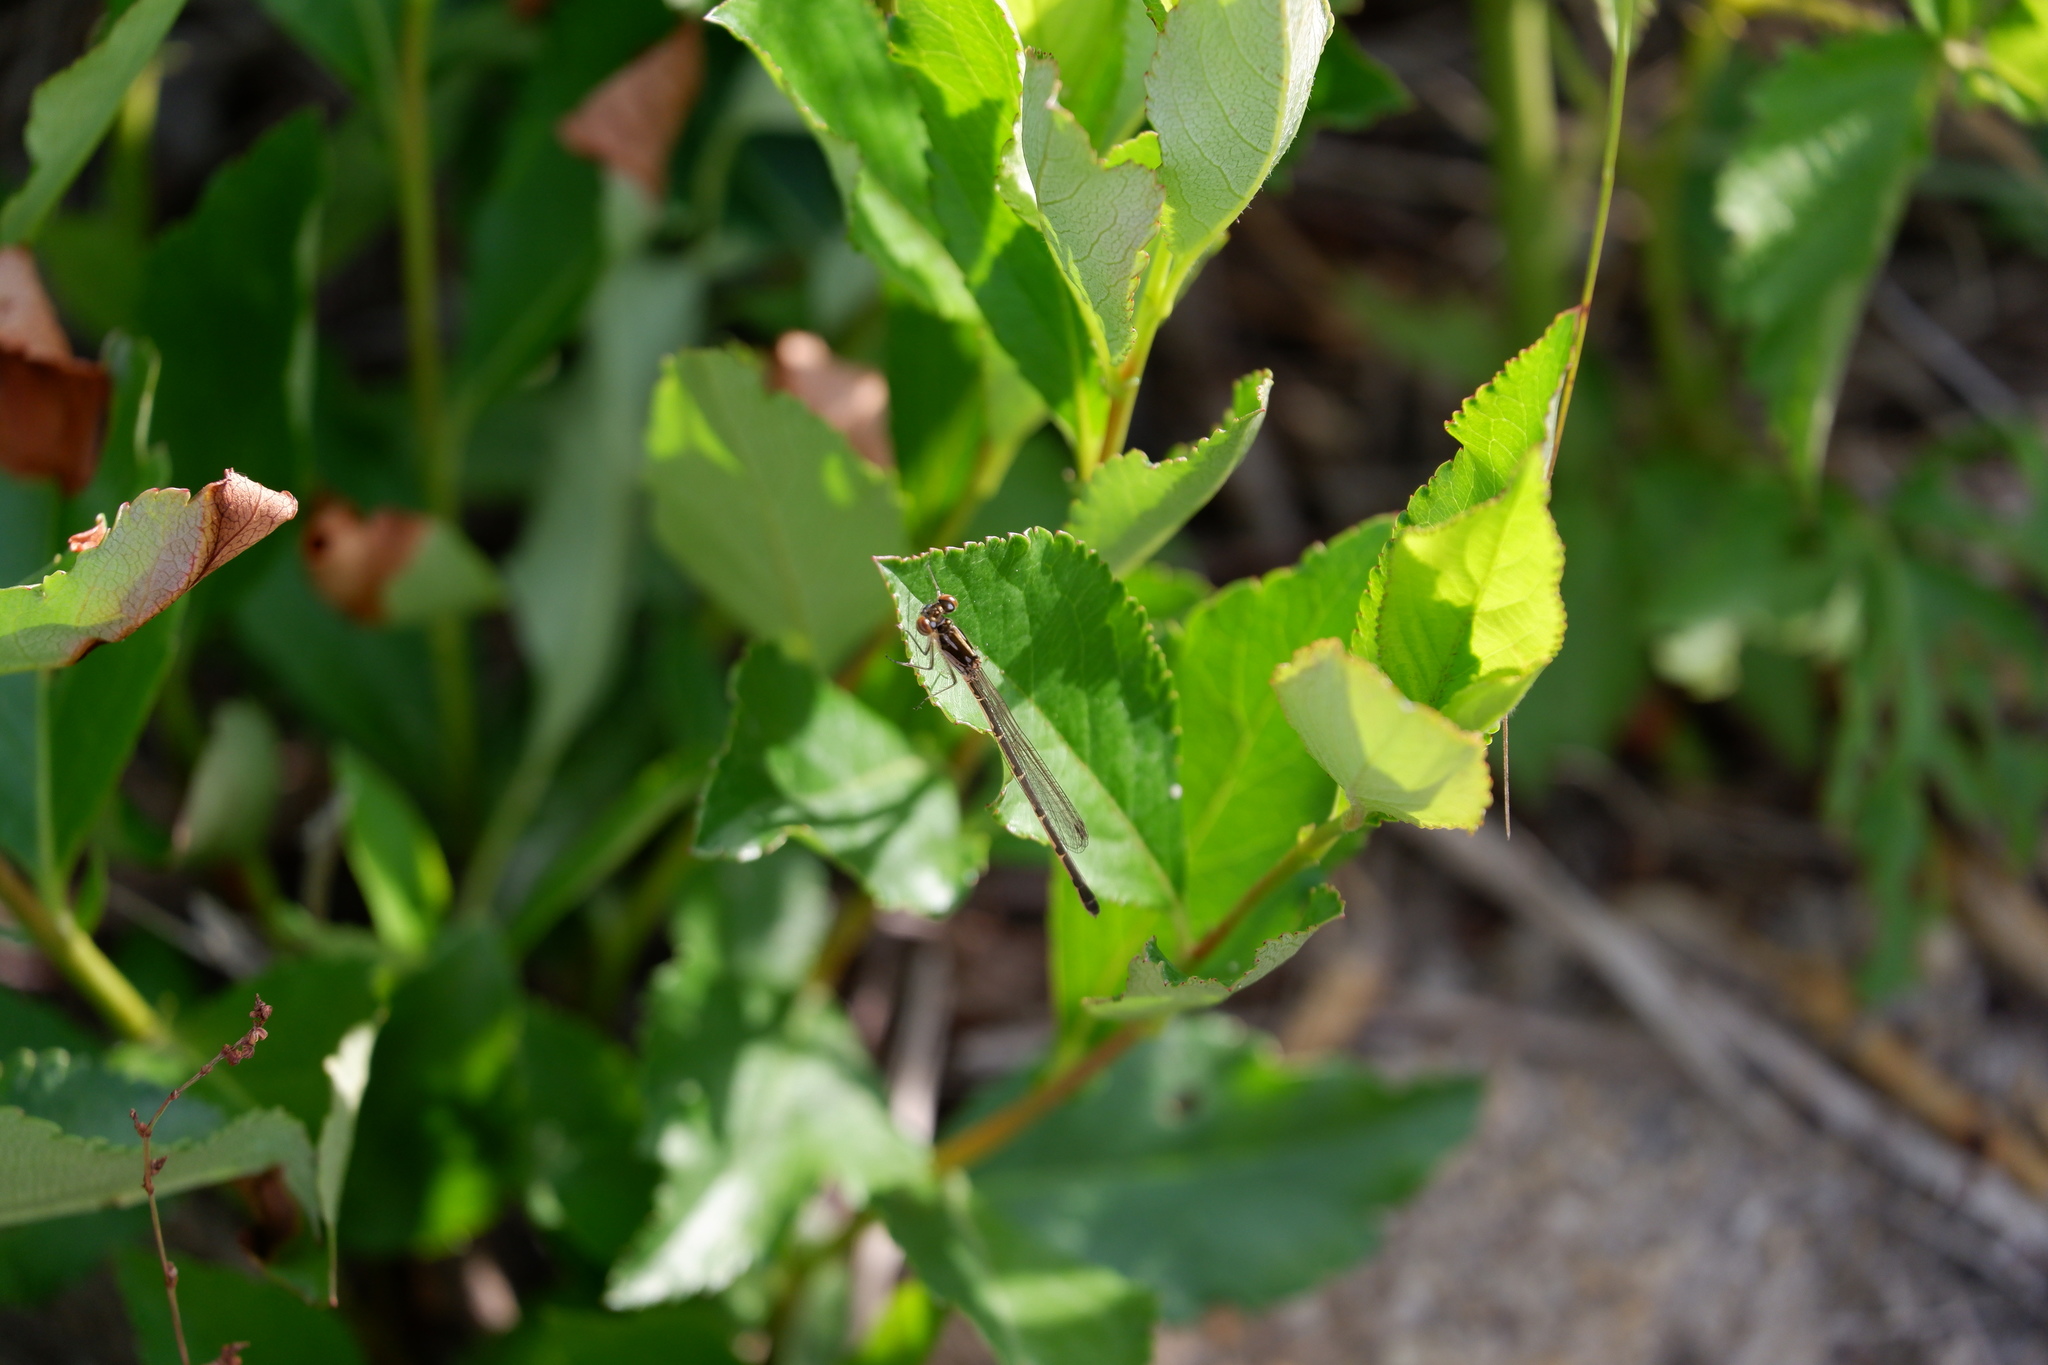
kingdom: Animalia
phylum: Arthropoda
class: Insecta
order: Odonata
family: Coenagrionidae
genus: Ischnura
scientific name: Ischnura posita
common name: Fragile forktail
